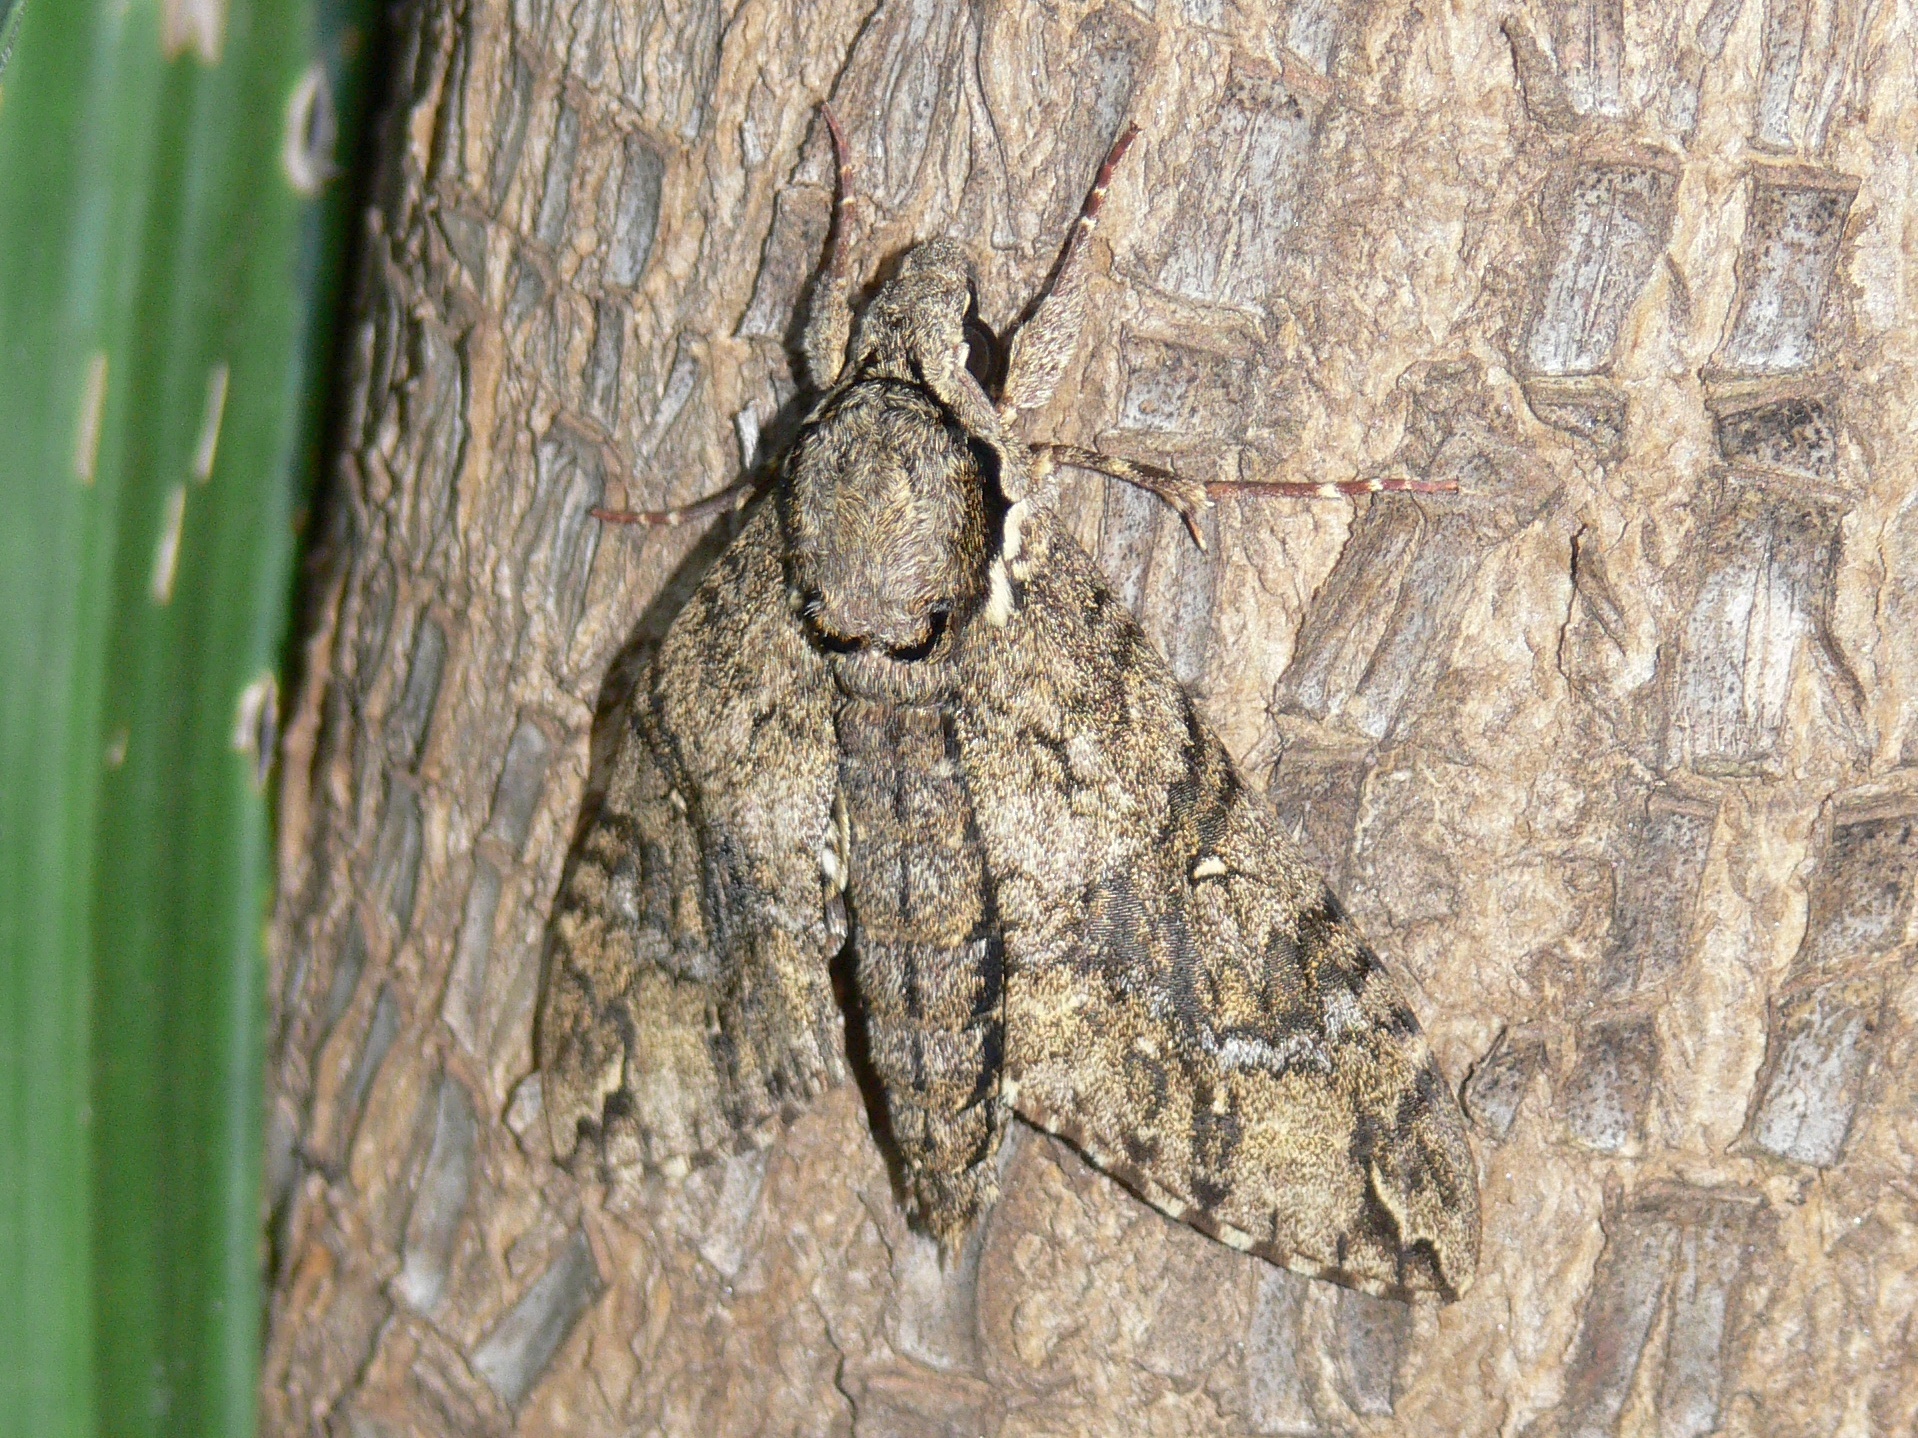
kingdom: Animalia
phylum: Arthropoda
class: Insecta
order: Lepidoptera
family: Sphingidae
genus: Panogena
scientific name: Panogena lingens
